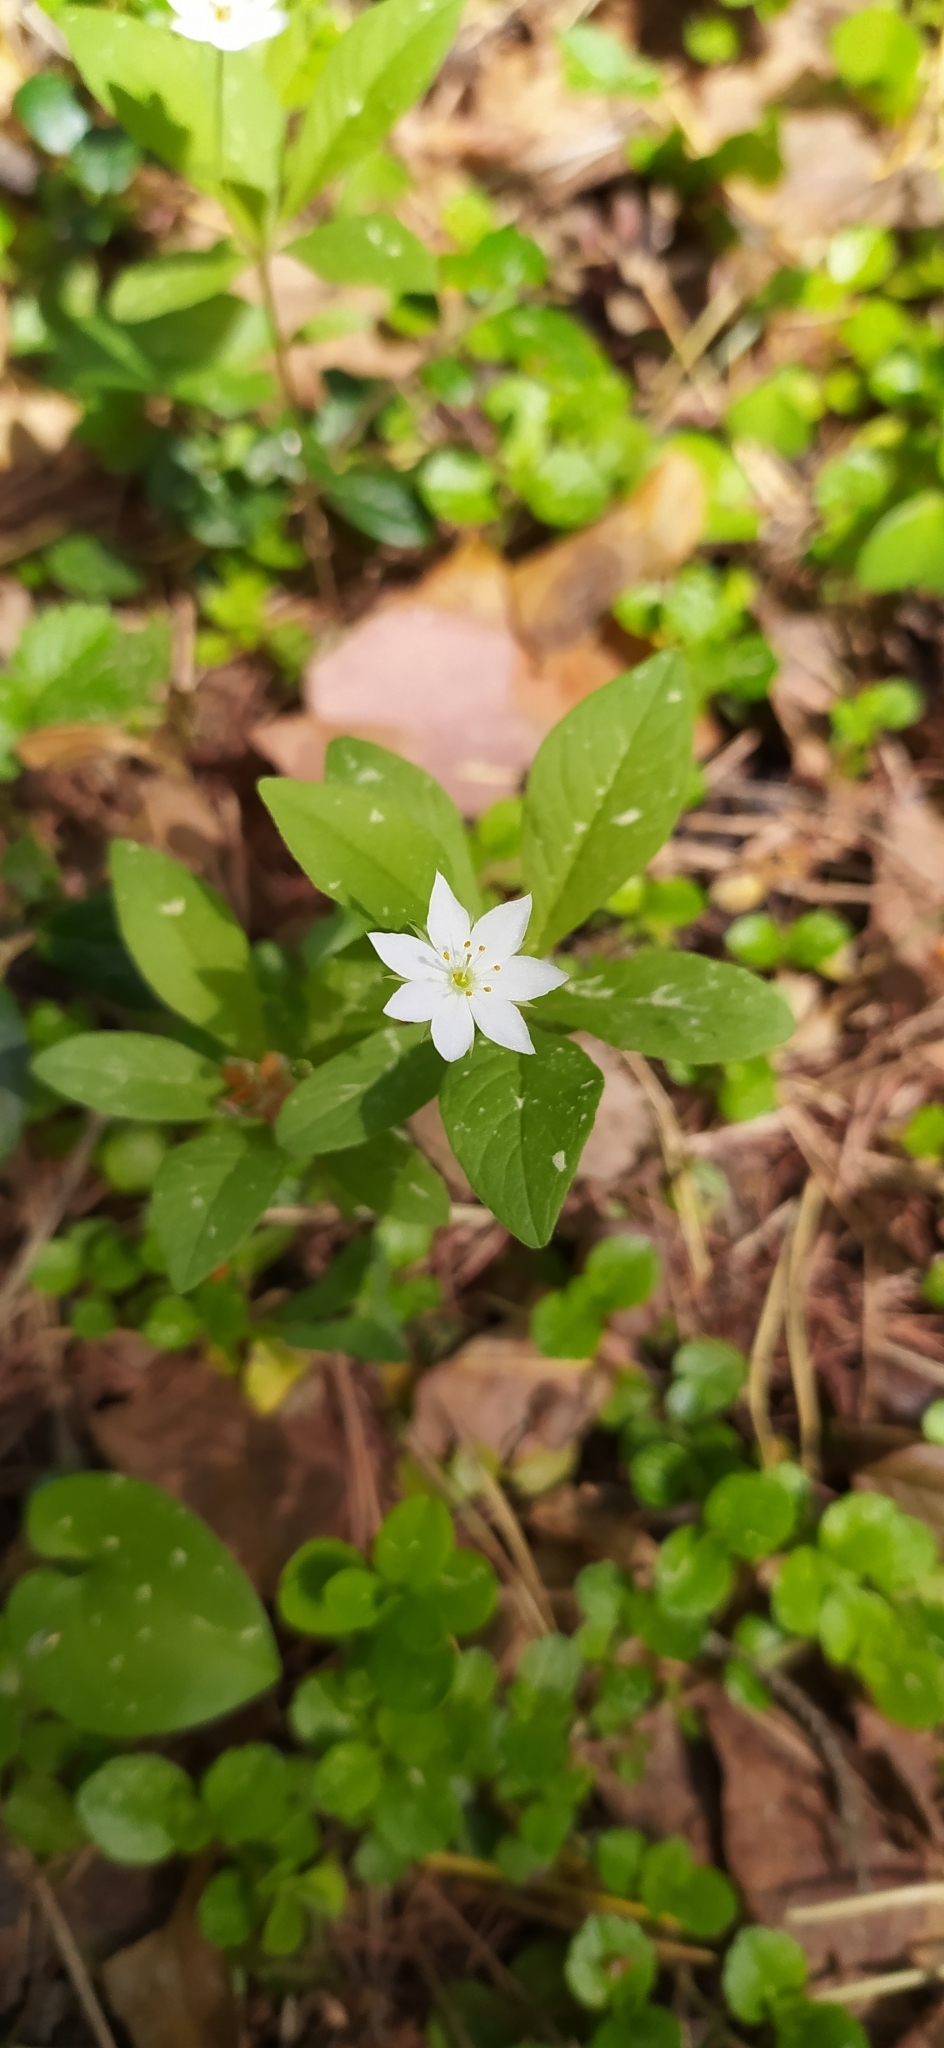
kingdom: Plantae
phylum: Tracheophyta
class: Magnoliopsida
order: Ericales
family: Primulaceae
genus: Lysimachia
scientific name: Lysimachia europaea
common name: Arctic starflower
